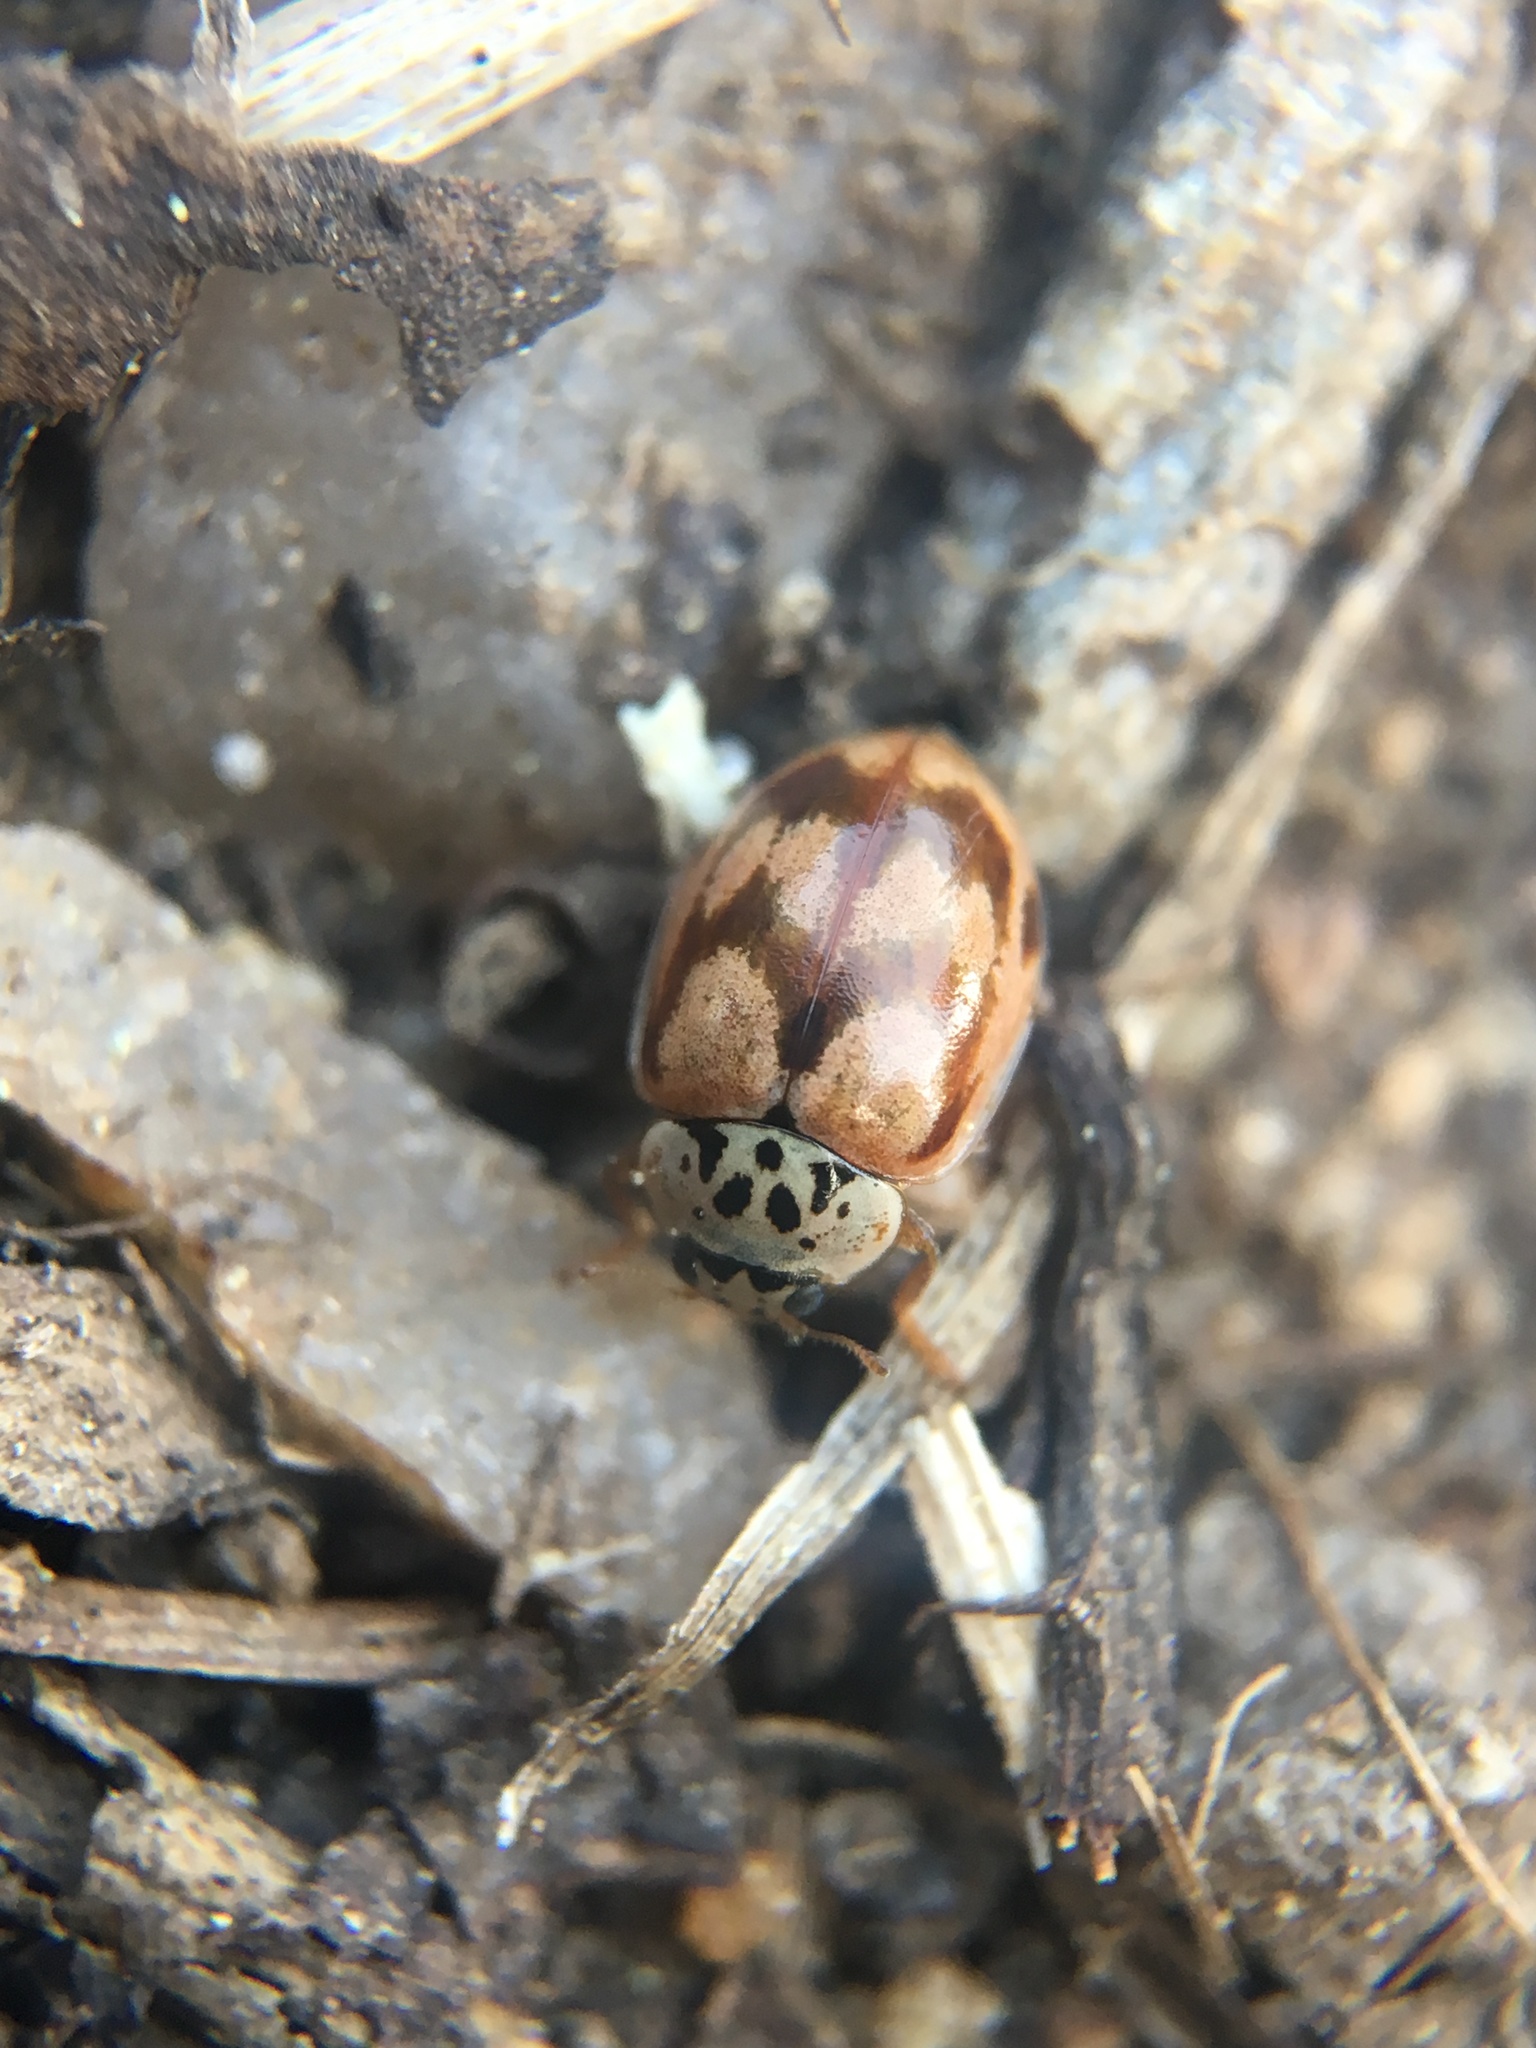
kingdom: Animalia
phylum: Arthropoda
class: Insecta
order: Coleoptera
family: Coccinellidae
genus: Mulsantina
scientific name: Mulsantina picta
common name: Painted ladybird
